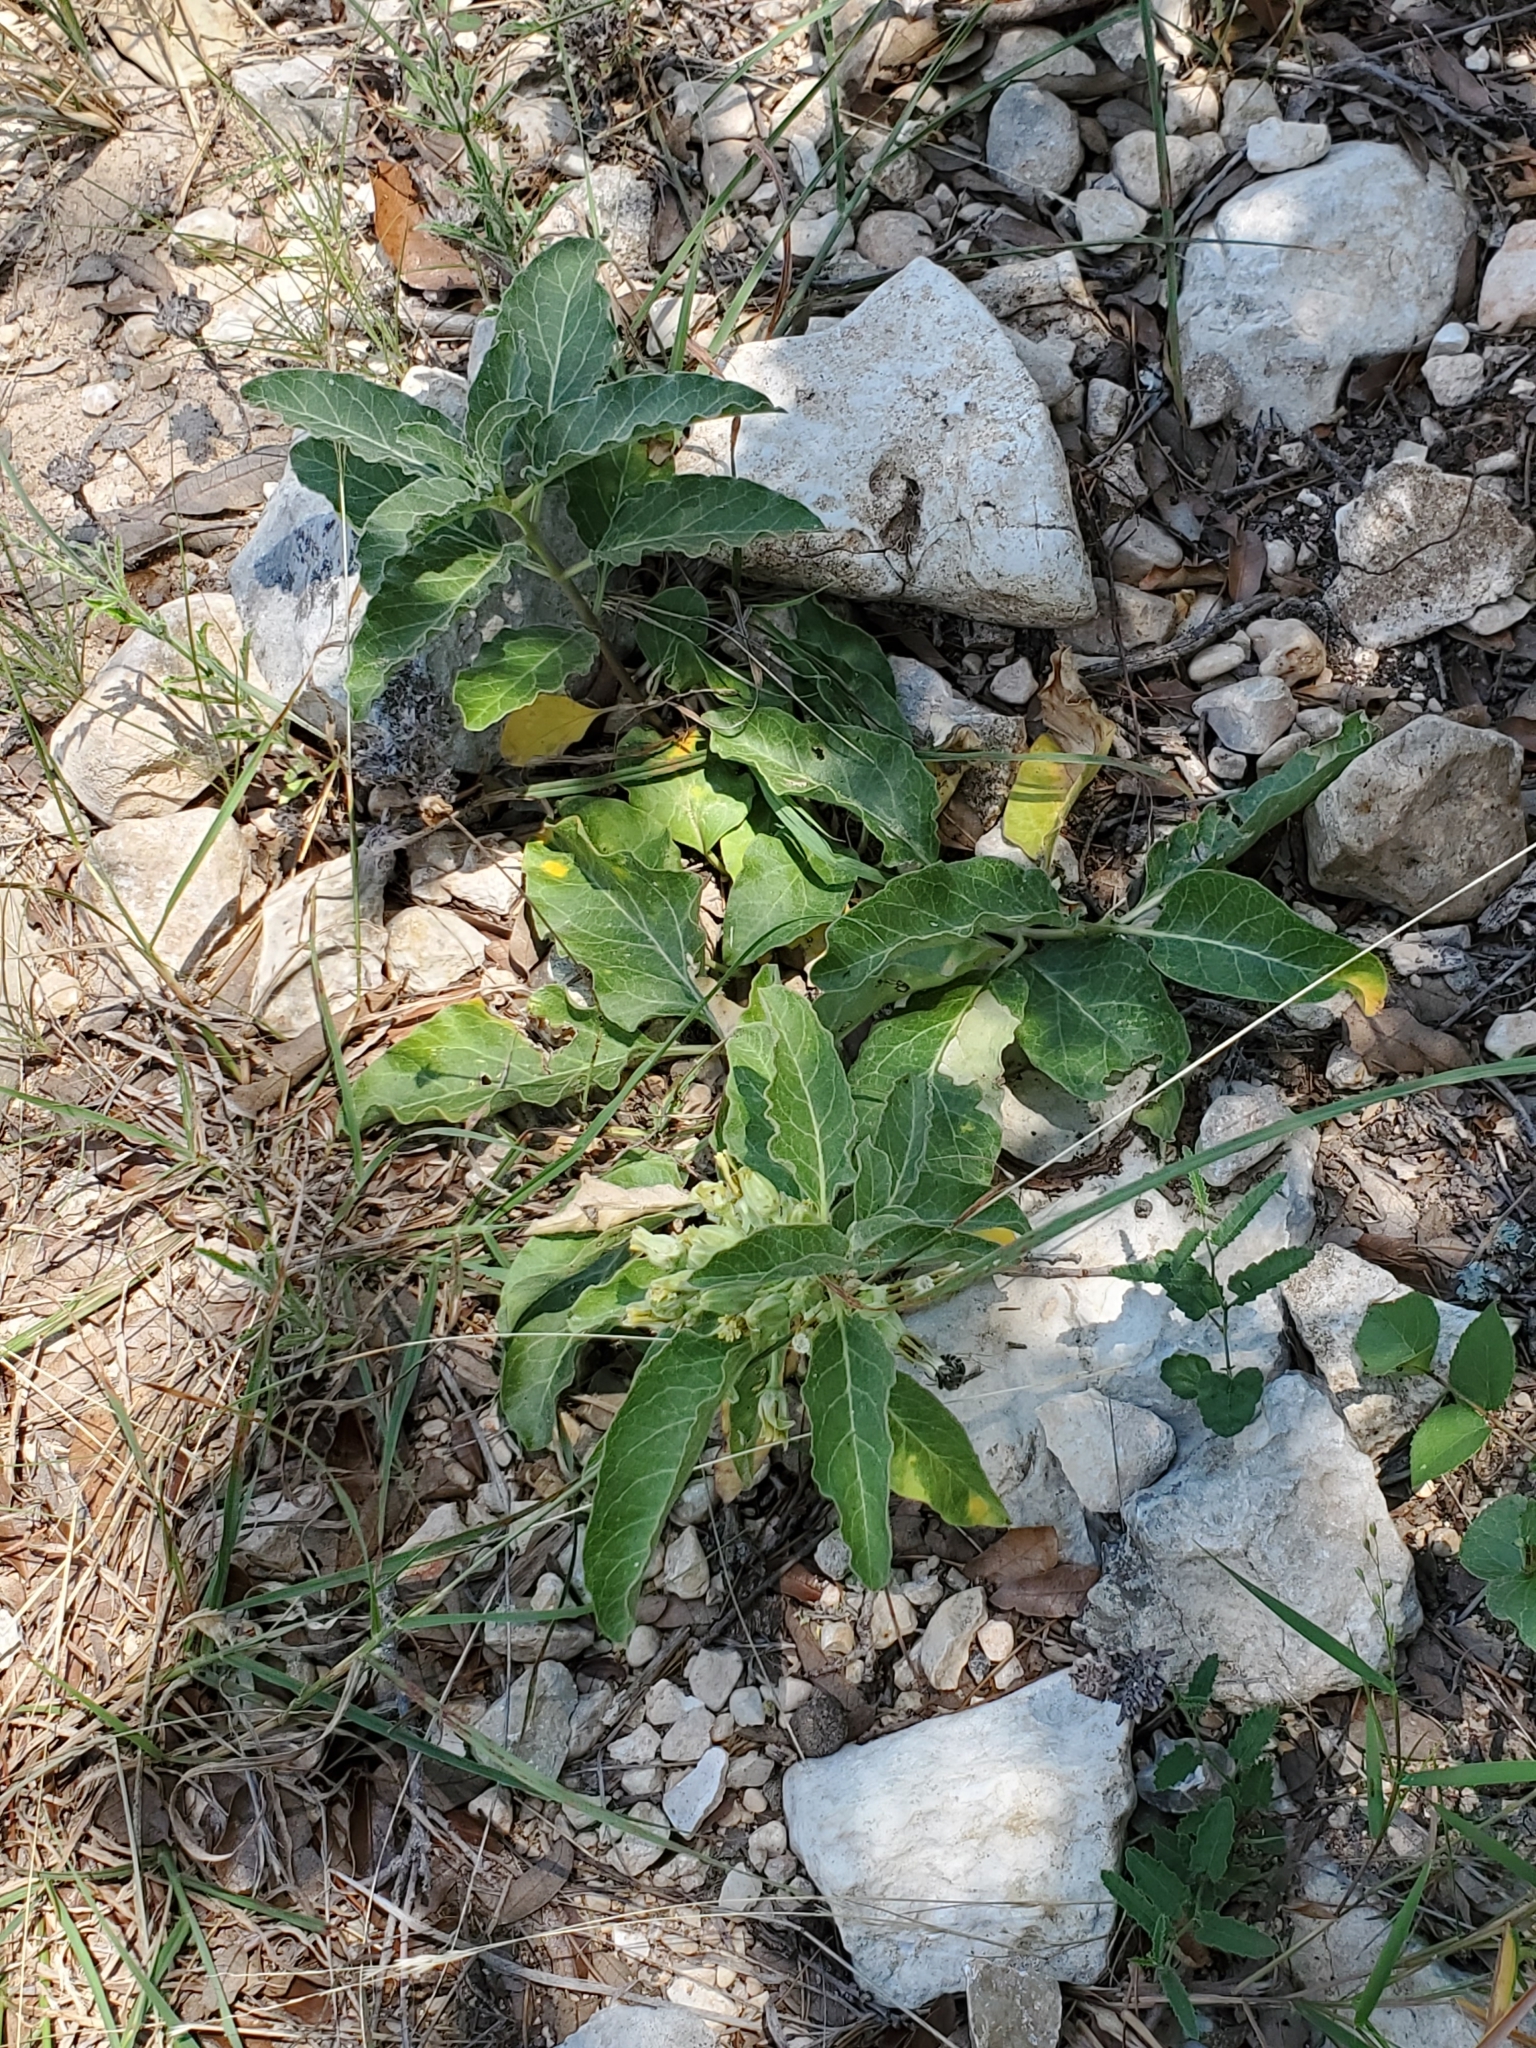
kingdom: Plantae
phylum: Tracheophyta
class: Magnoliopsida
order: Gentianales
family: Apocynaceae
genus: Asclepias
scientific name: Asclepias oenotheroides
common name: Zizotes milkweed
